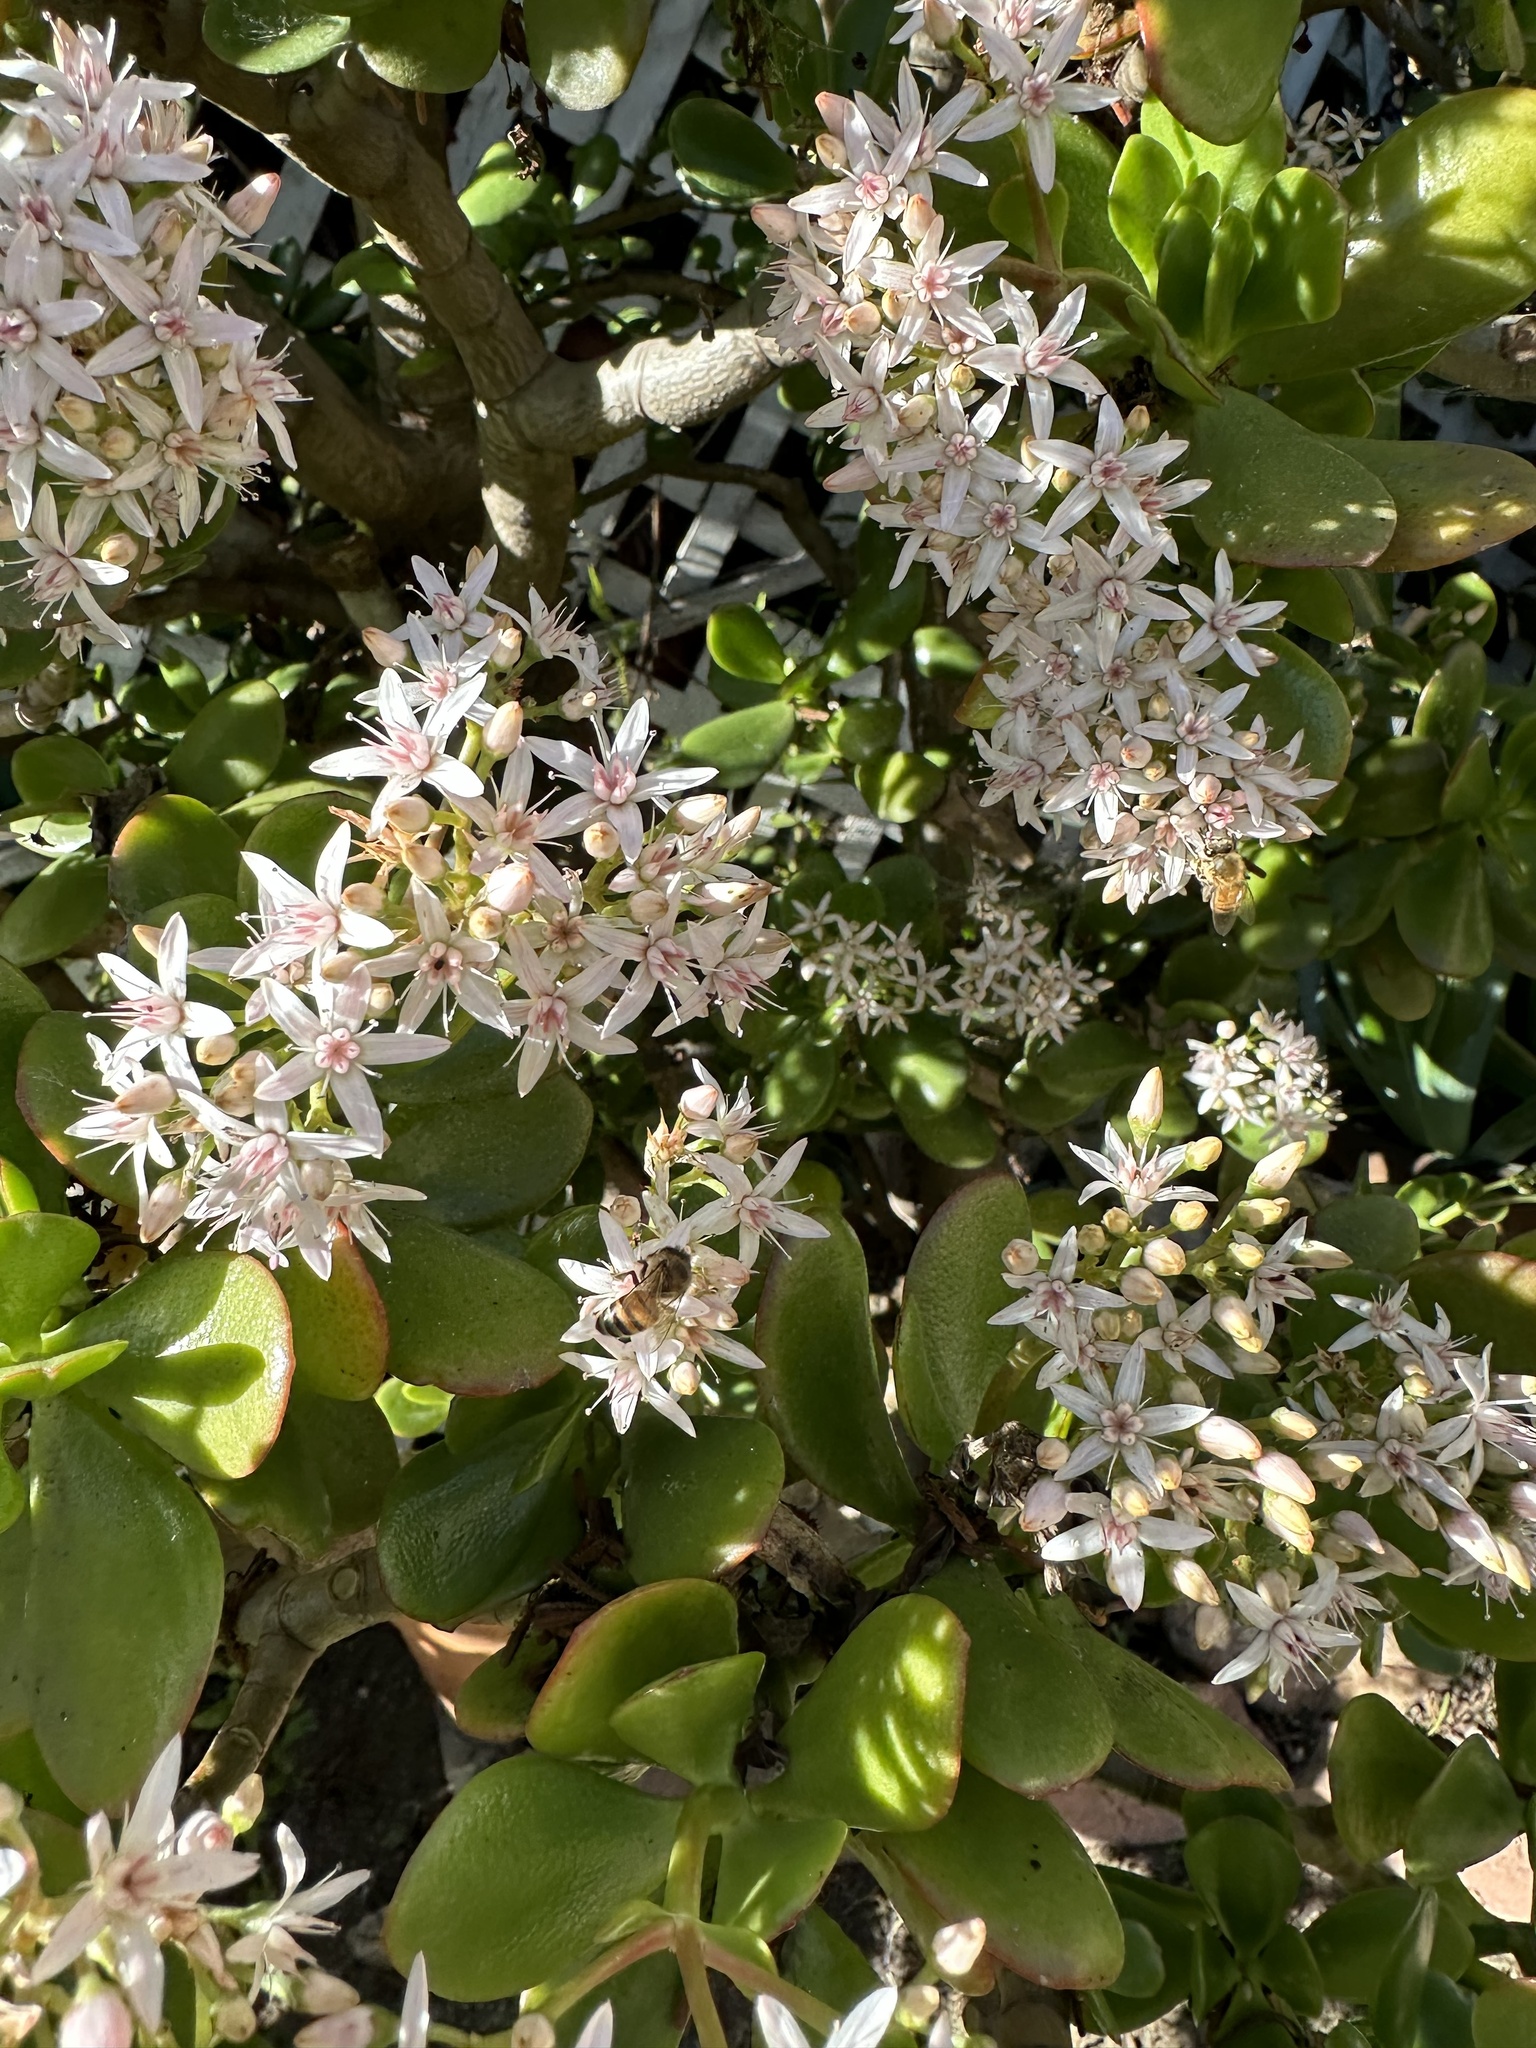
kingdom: Animalia
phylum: Arthropoda
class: Insecta
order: Hymenoptera
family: Apidae
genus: Apis
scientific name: Apis mellifera
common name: Honey bee
